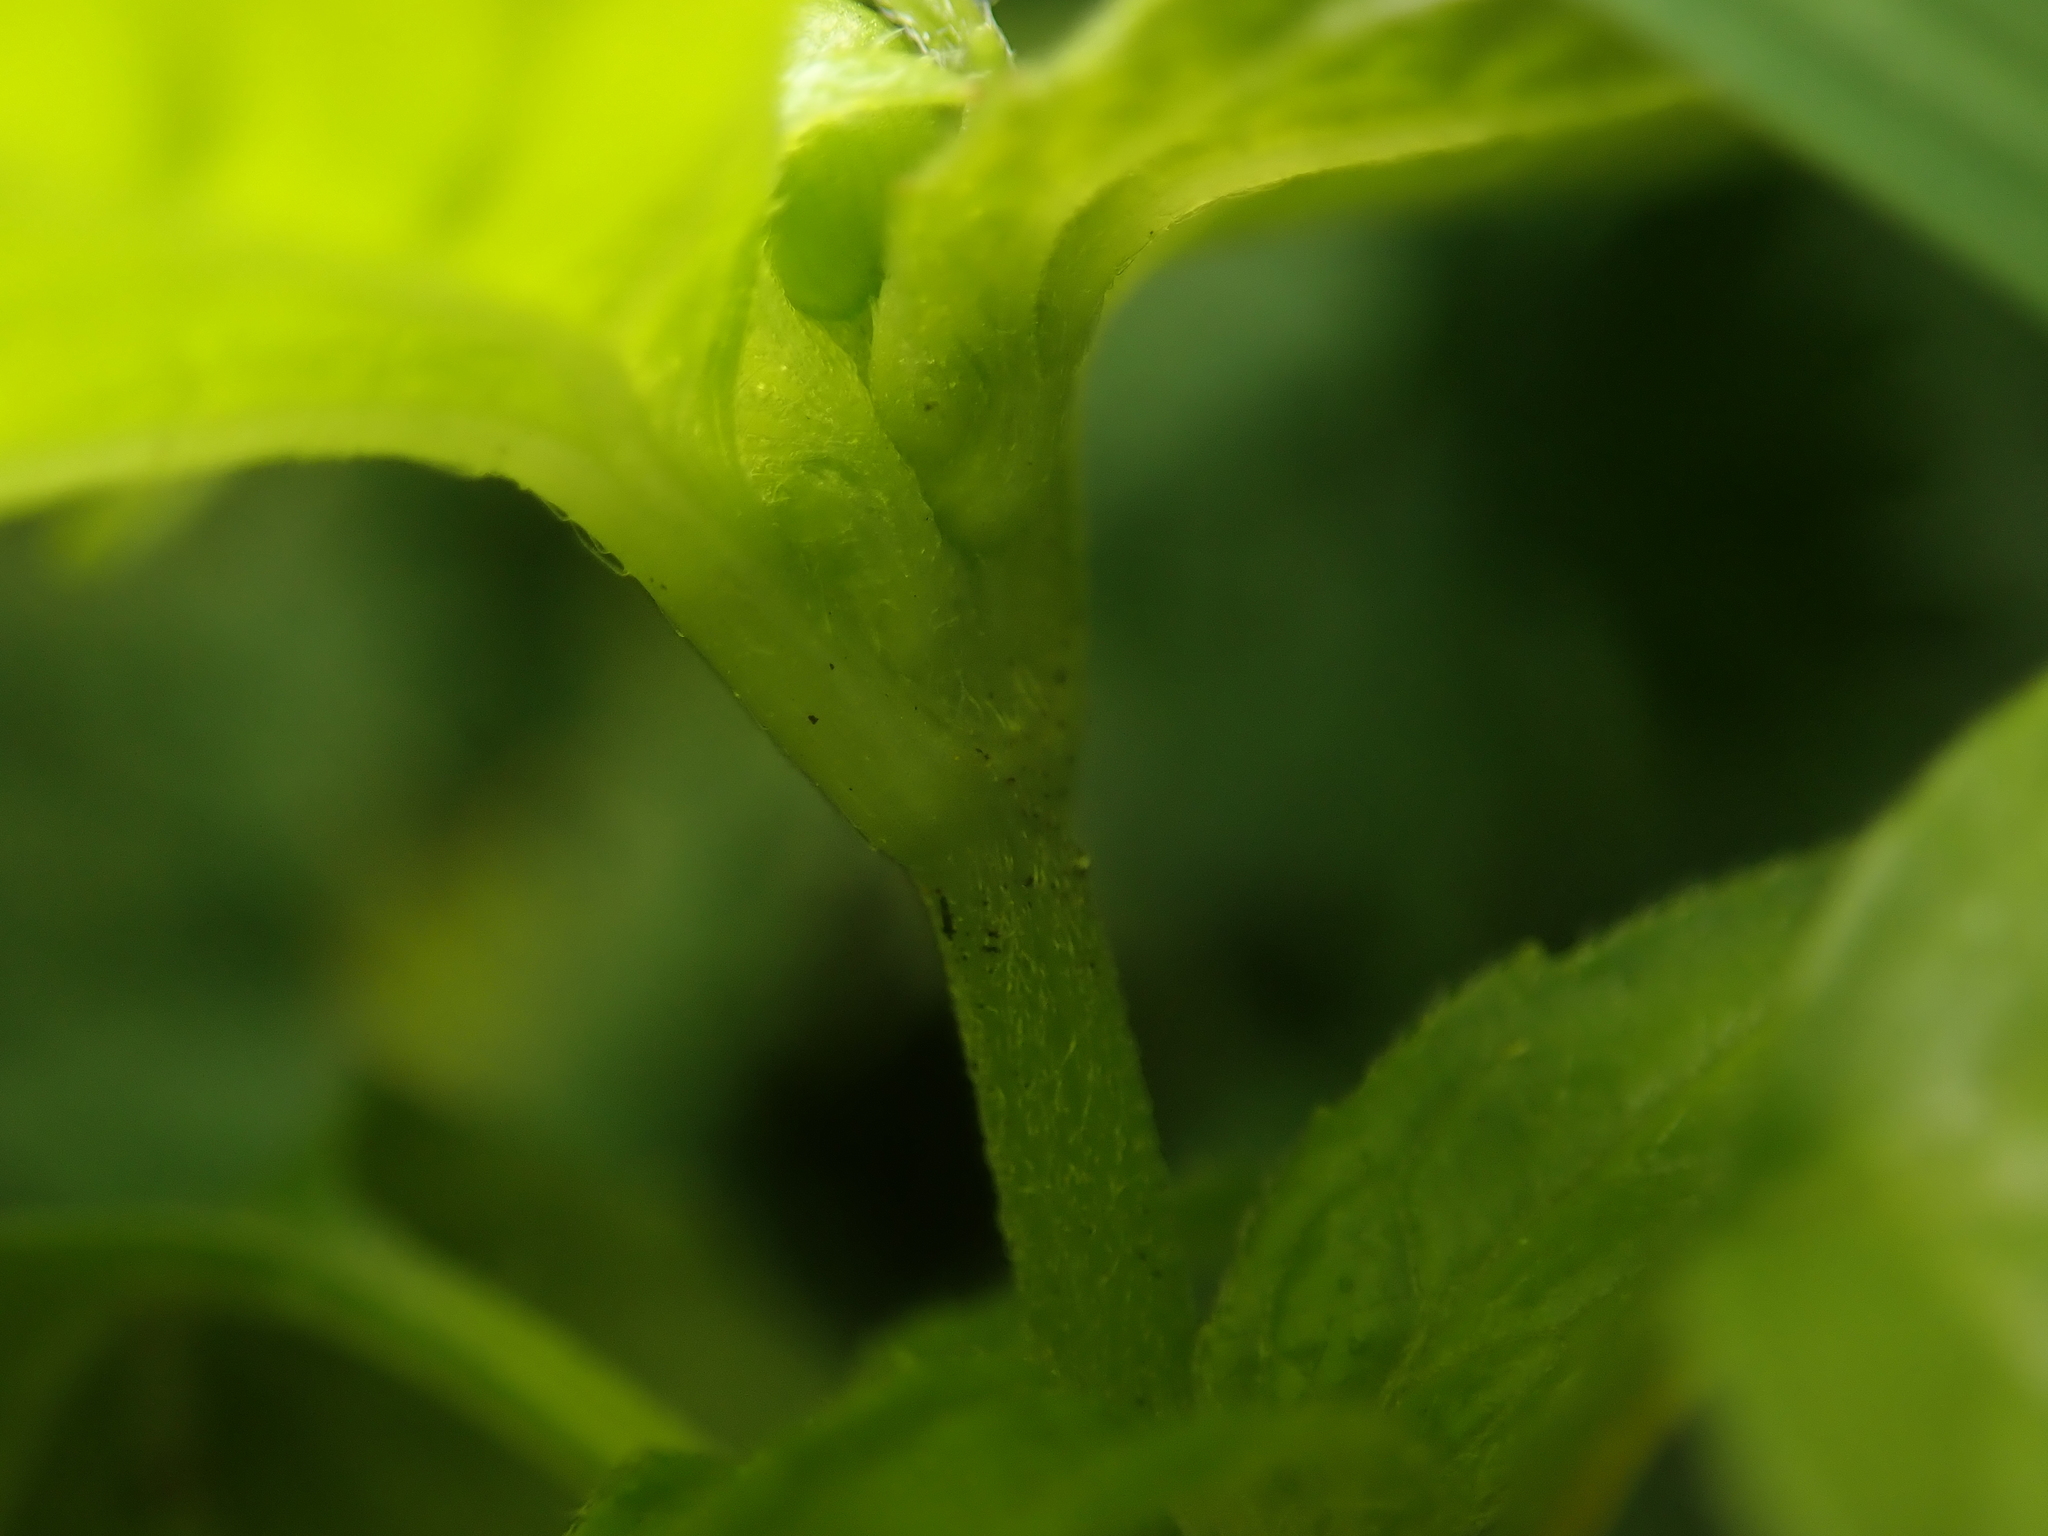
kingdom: Plantae
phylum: Tracheophyta
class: Magnoliopsida
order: Asterales
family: Asteraceae
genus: Galinsoga
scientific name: Galinsoga parviflora
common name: Gallant soldier
